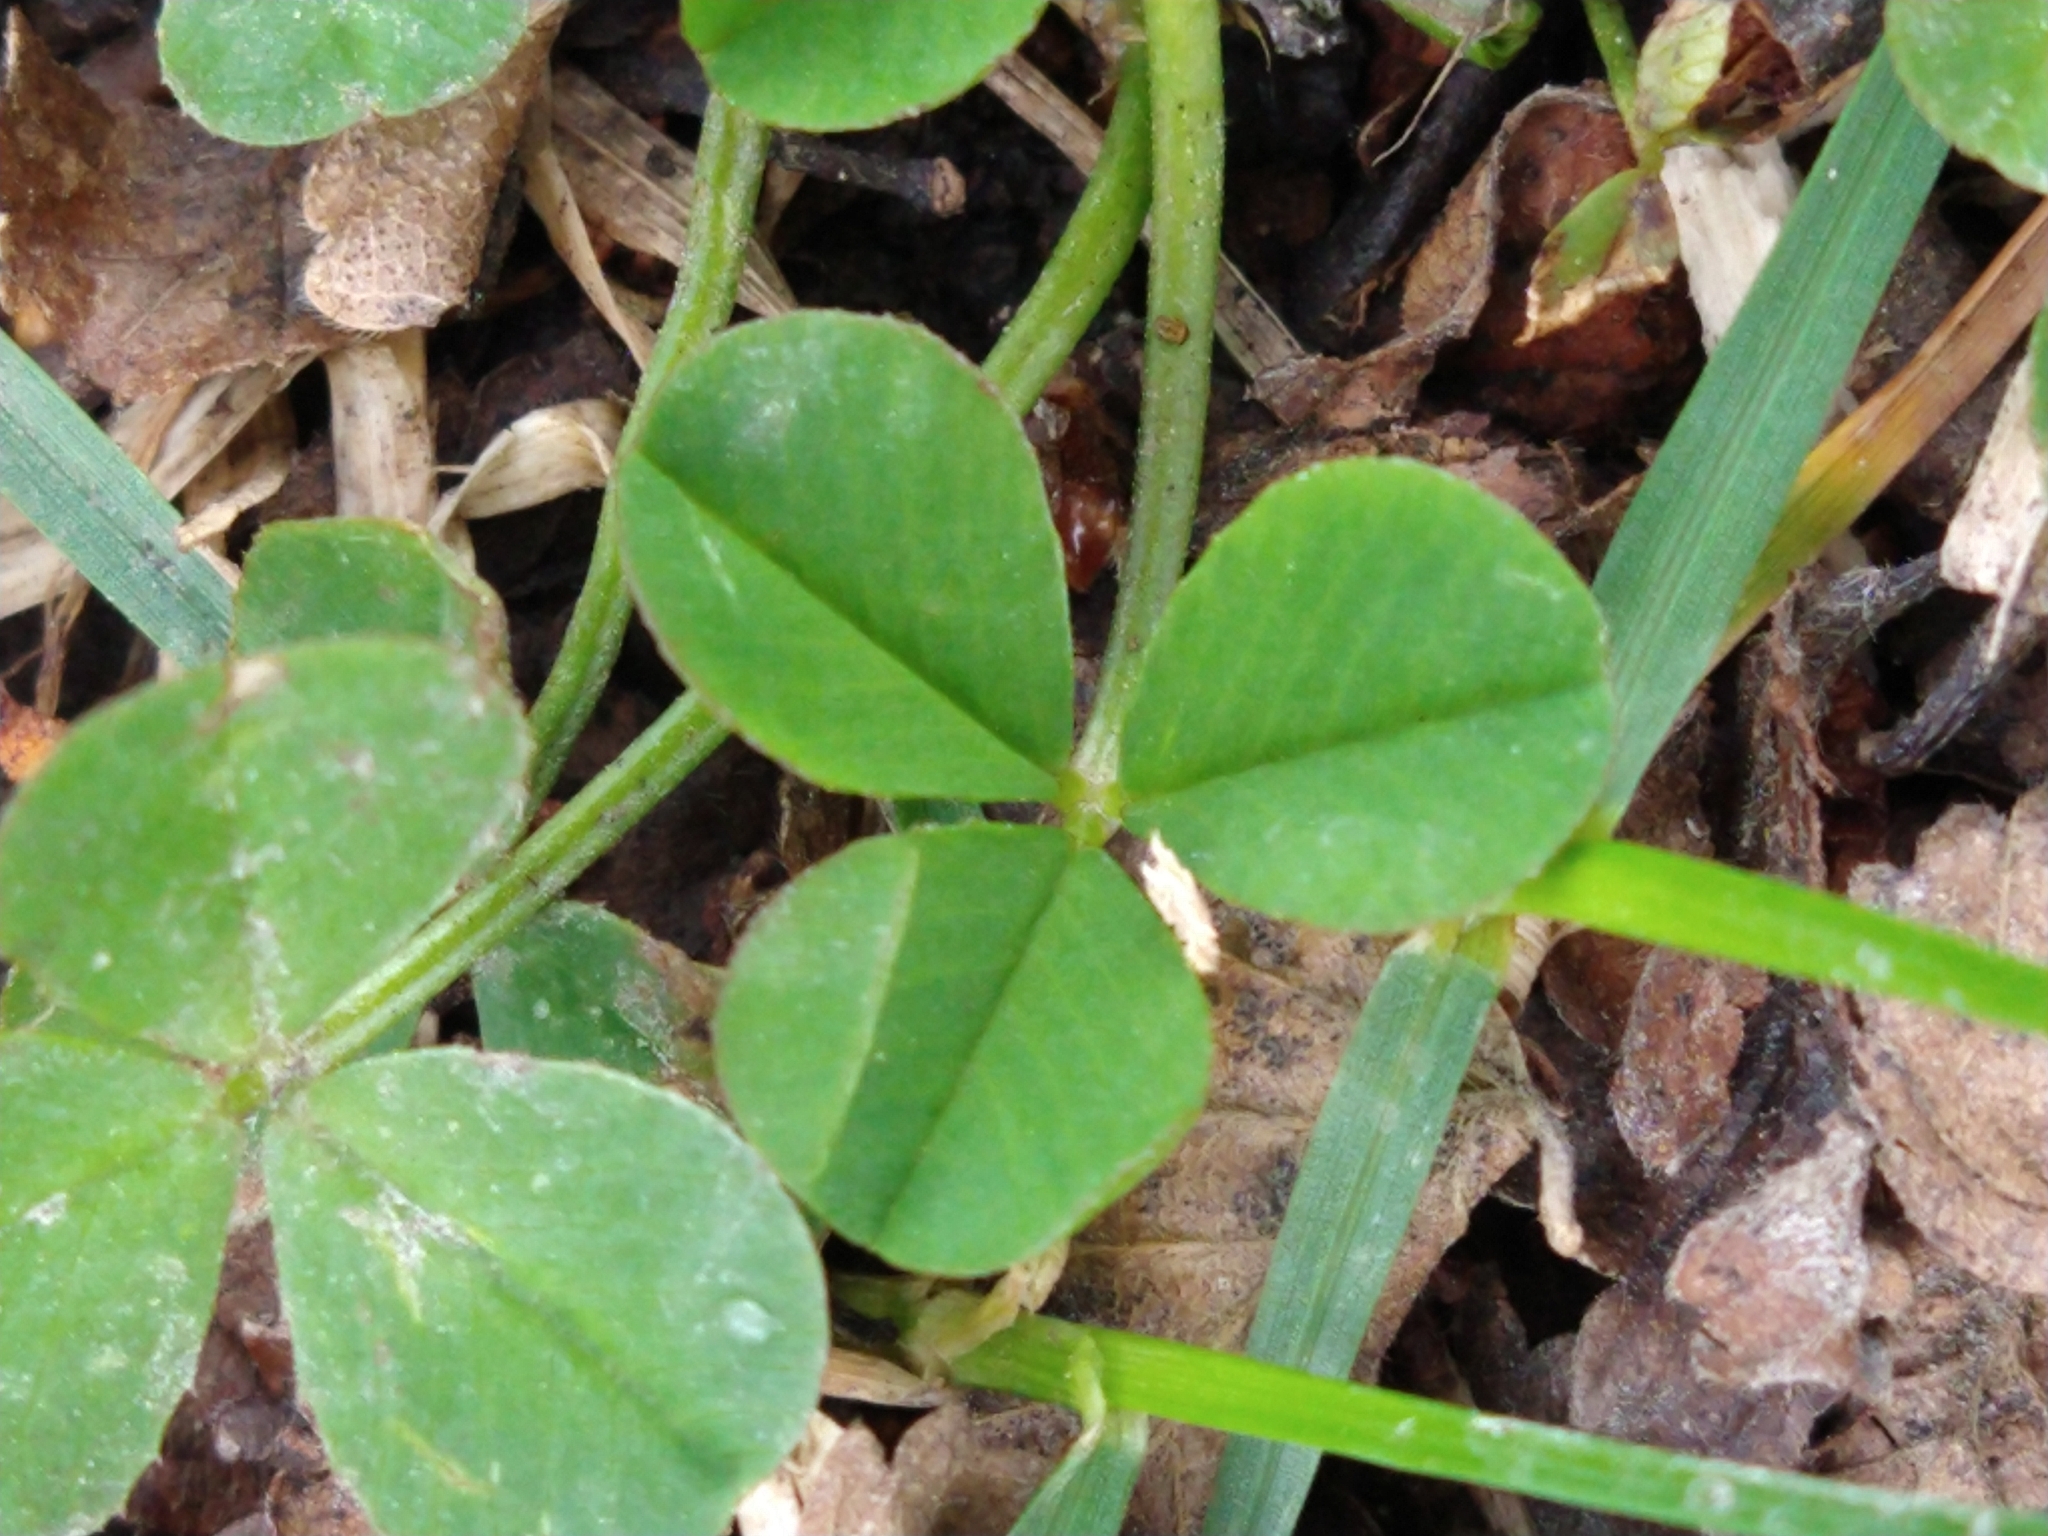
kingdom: Plantae
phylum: Tracheophyta
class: Magnoliopsida
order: Fabales
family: Fabaceae
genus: Trifolium
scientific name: Trifolium repens
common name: White clover
